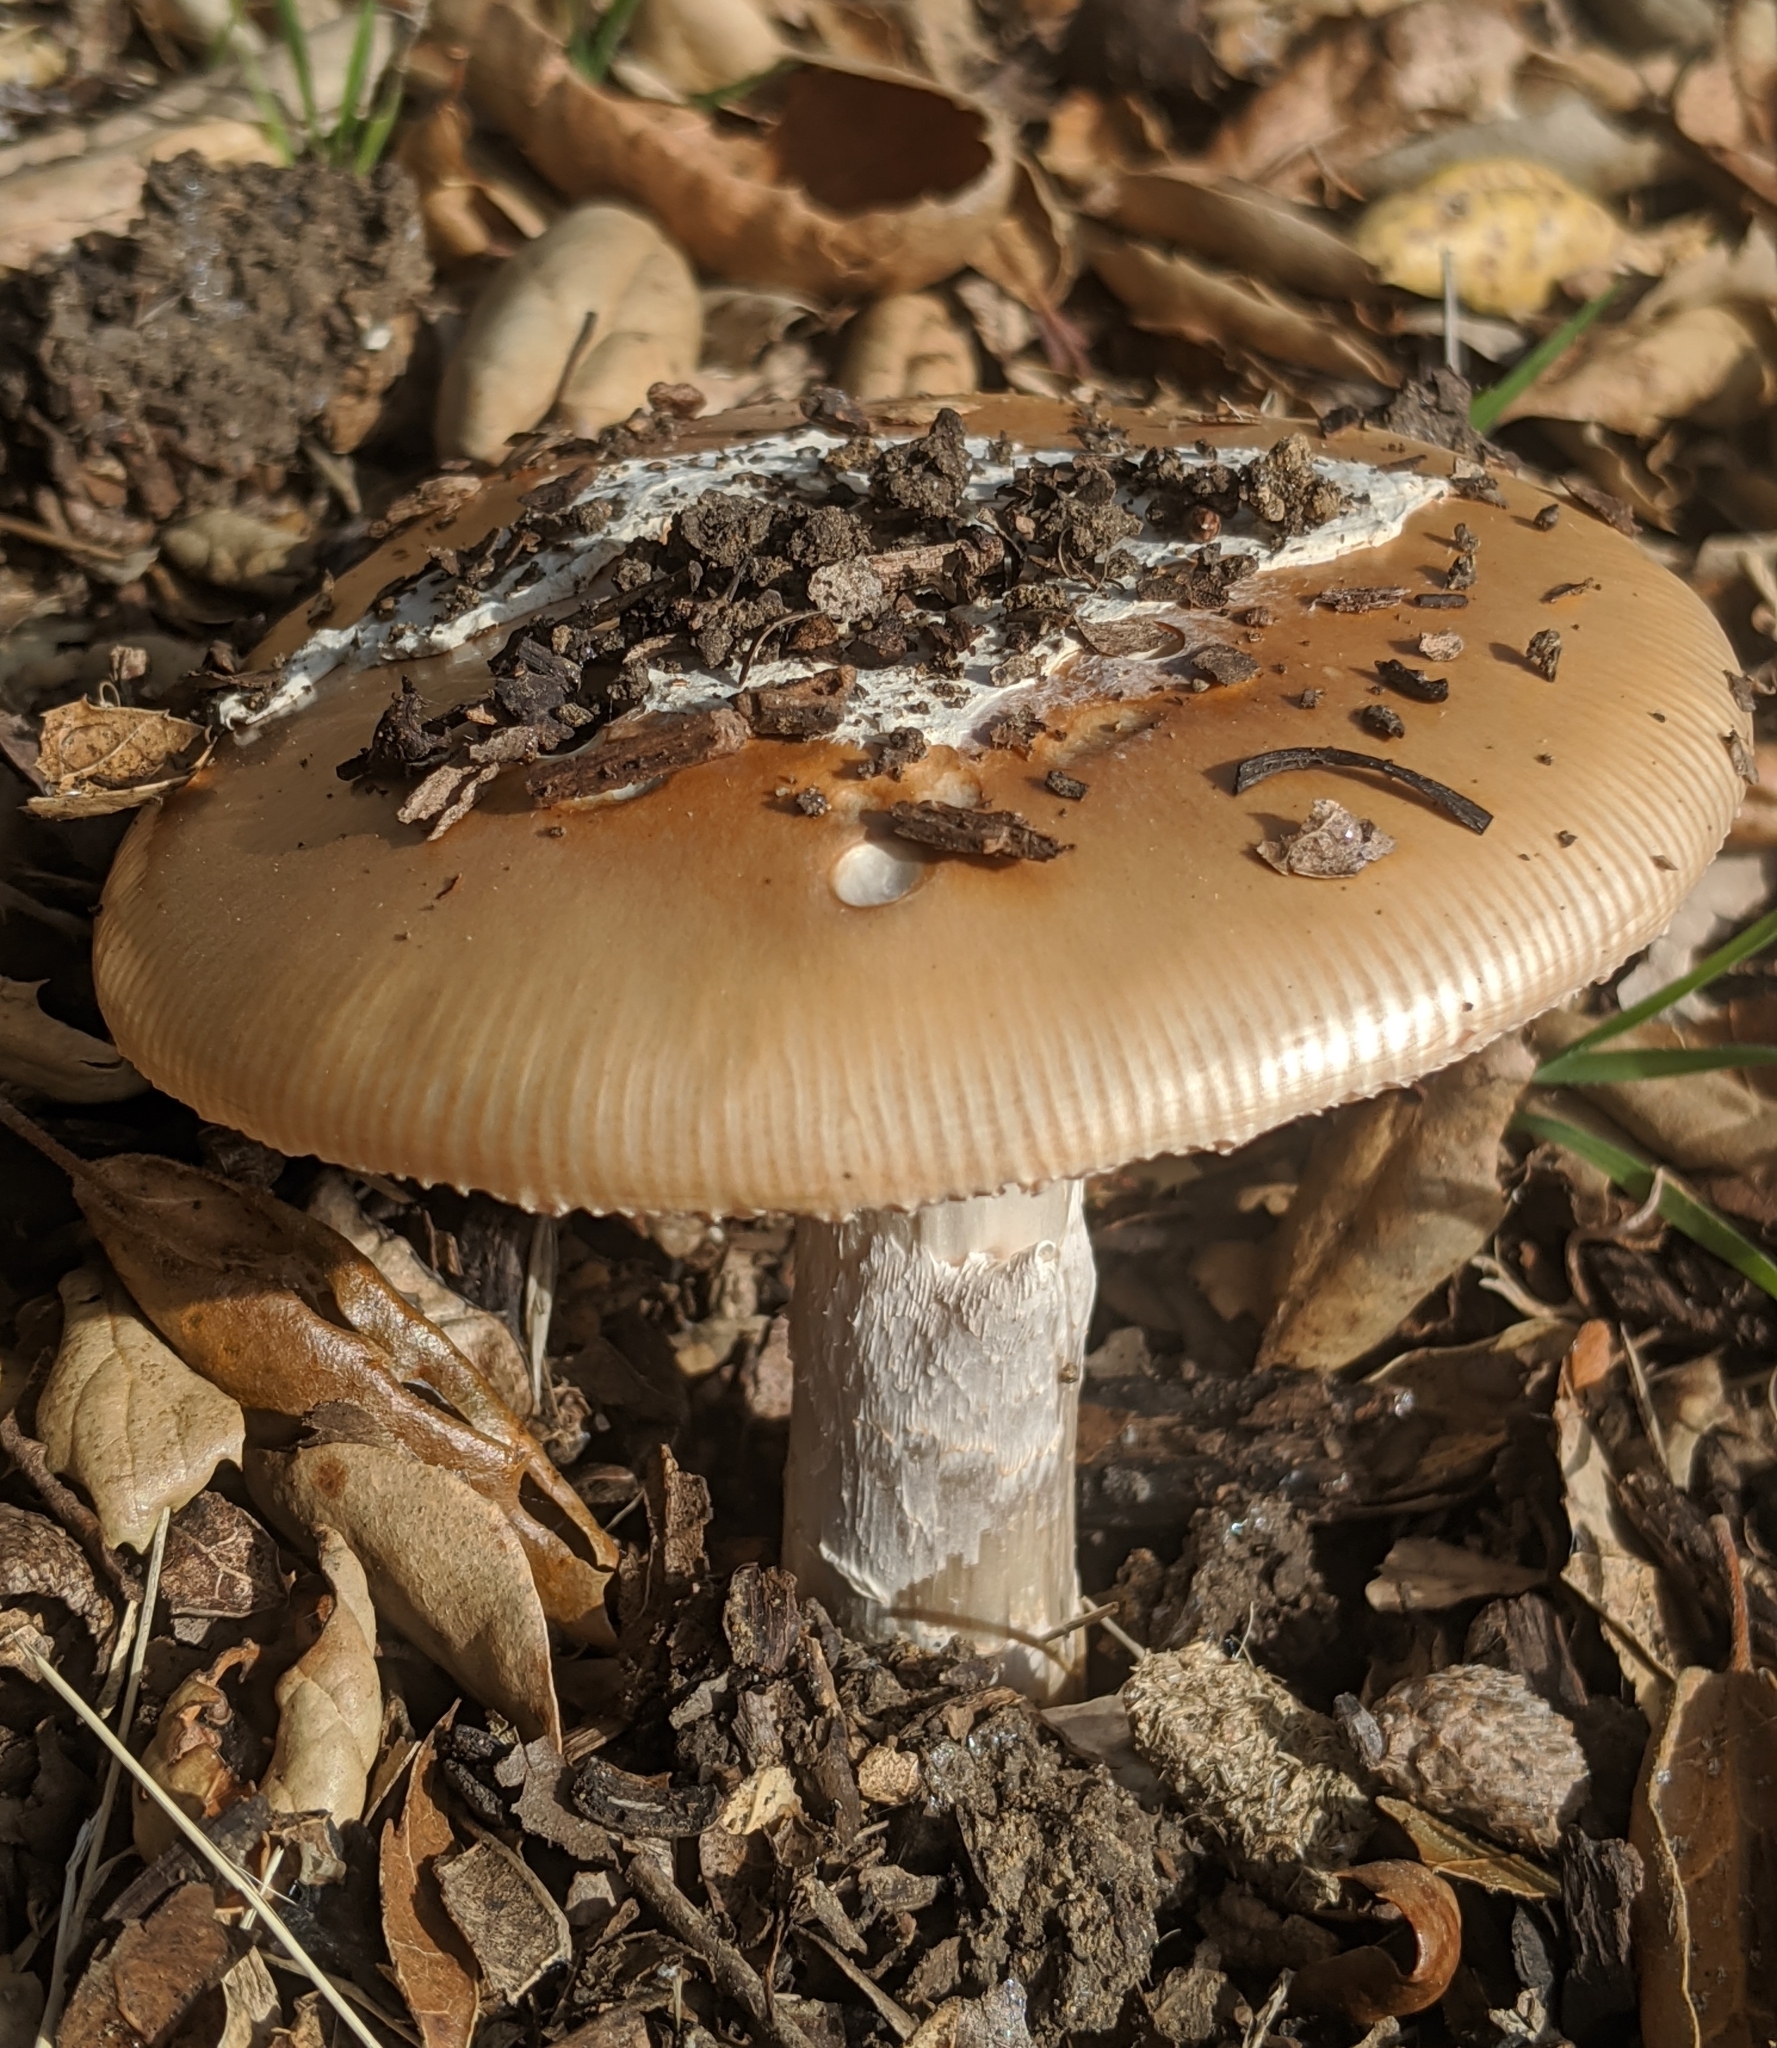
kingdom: Fungi
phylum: Basidiomycota
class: Agaricomycetes
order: Agaricales
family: Amanitaceae
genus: Amanita
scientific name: Amanita velosa
